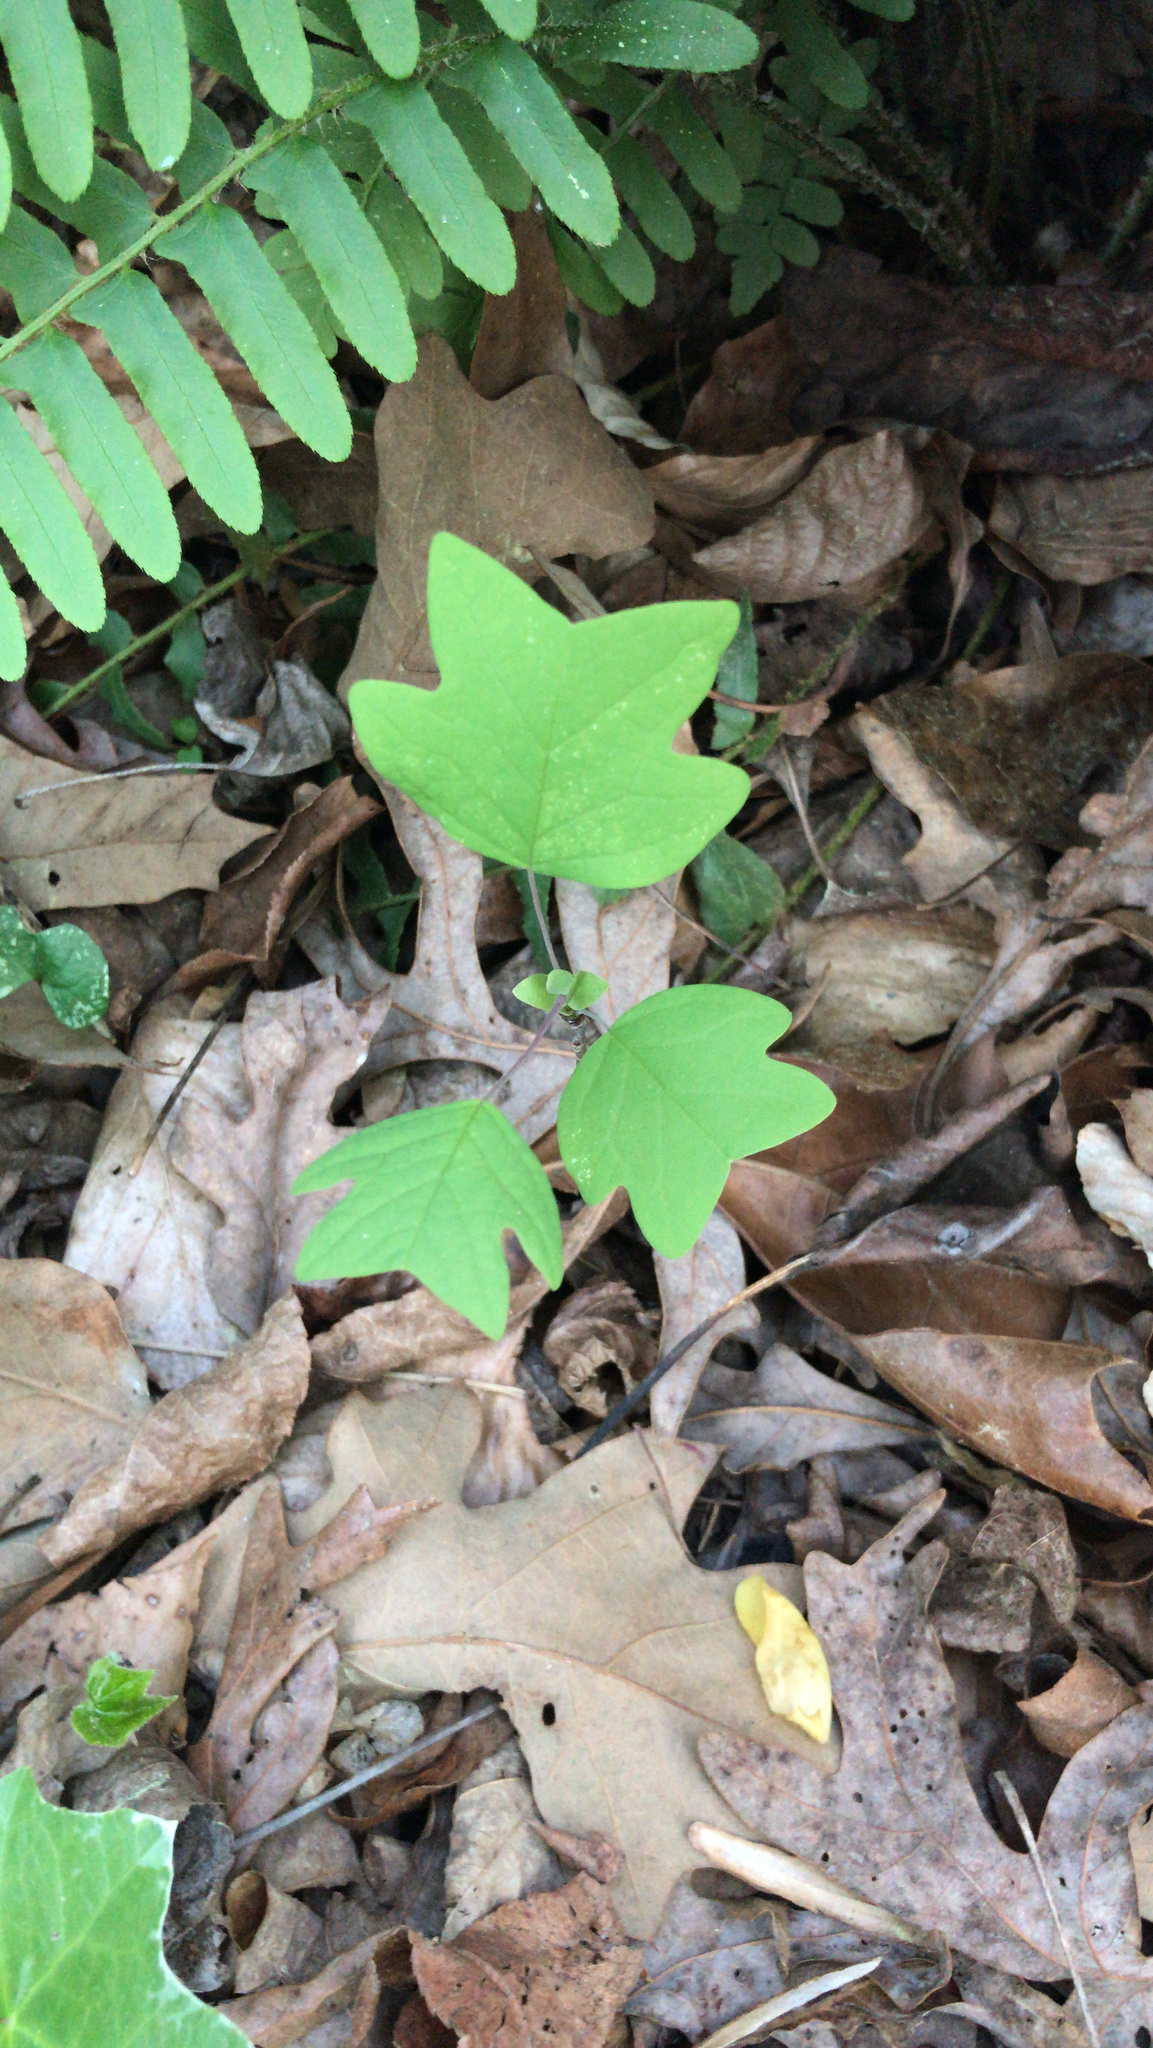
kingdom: Plantae
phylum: Tracheophyta
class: Magnoliopsida
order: Magnoliales
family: Magnoliaceae
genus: Liriodendron
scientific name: Liriodendron tulipifera
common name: Tulip tree
